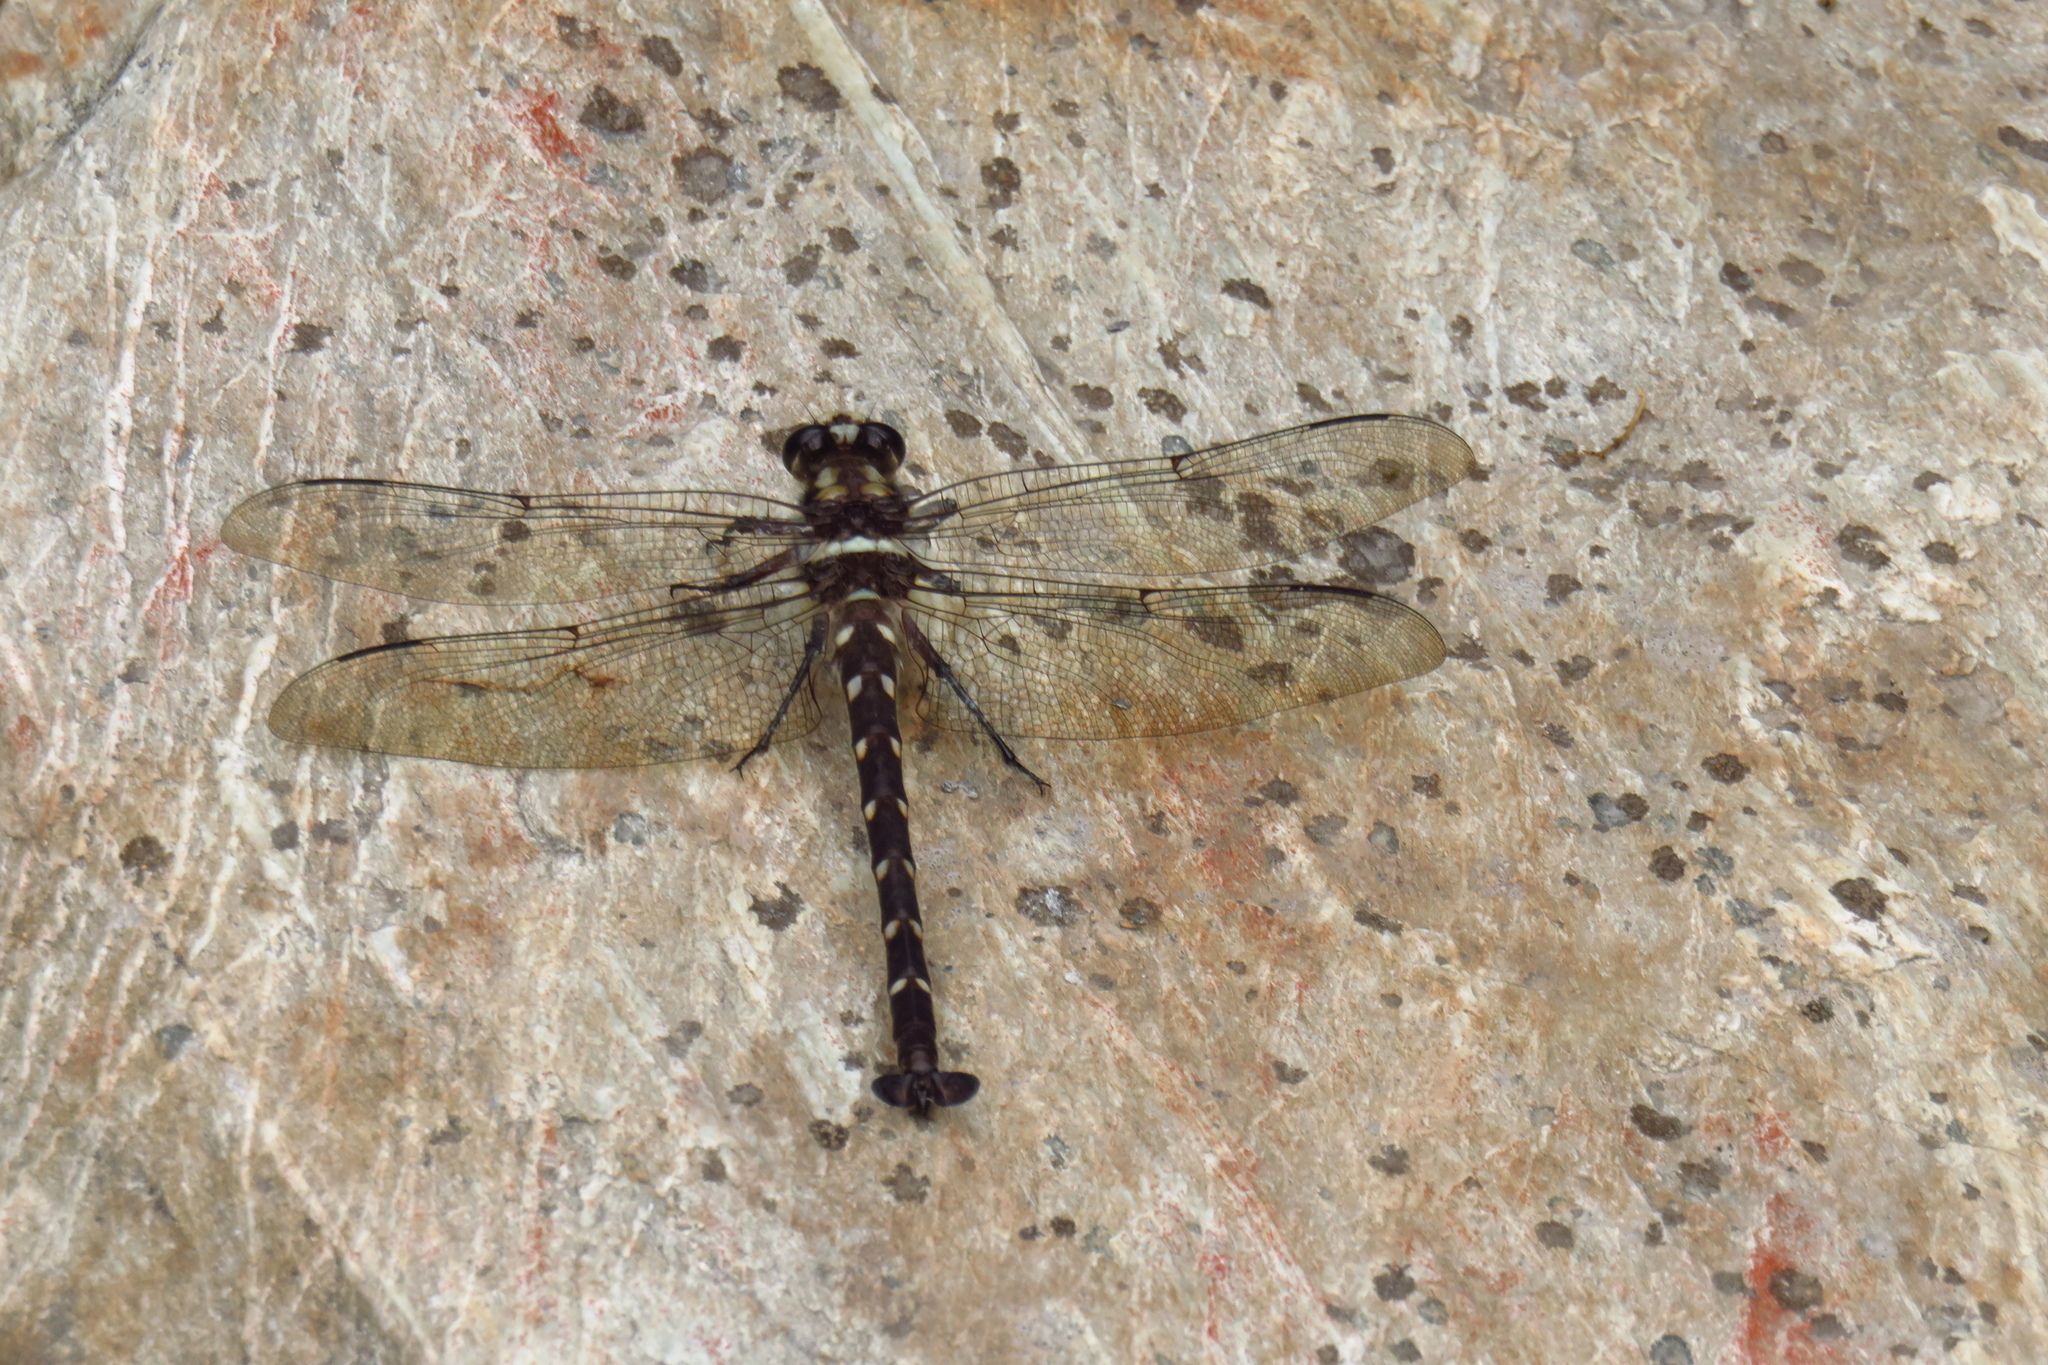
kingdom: Animalia
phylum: Arthropoda
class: Insecta
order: Odonata
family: Petaluridae
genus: Uropetala
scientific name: Uropetala carovei
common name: Bush giant dragonfly
